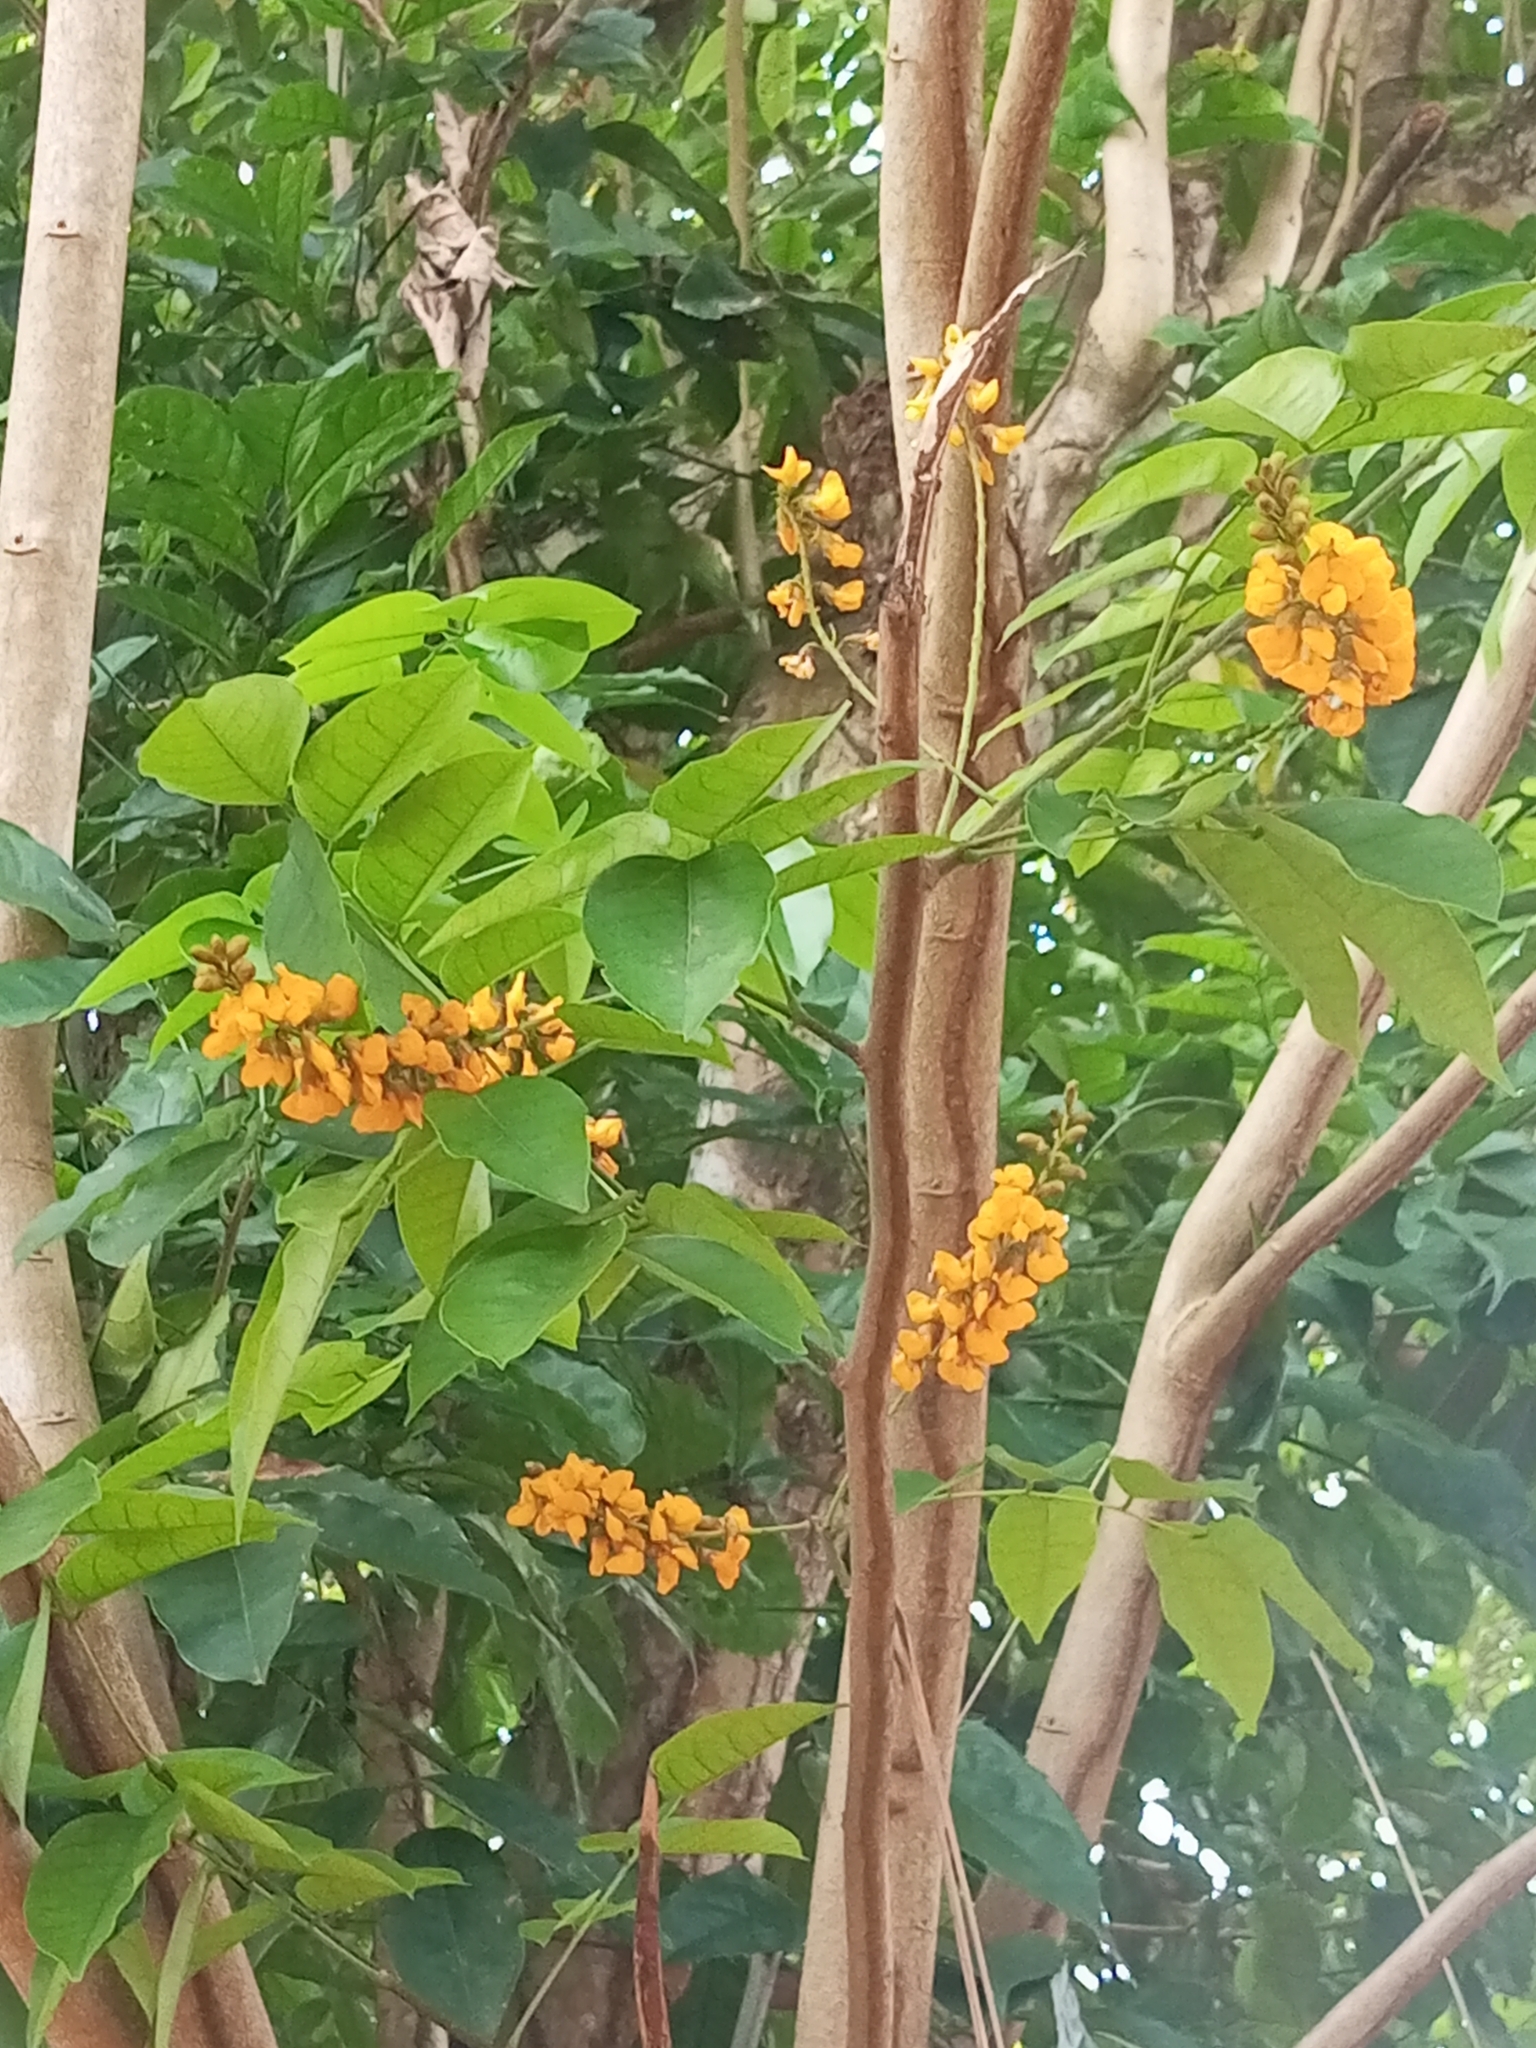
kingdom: Plantae
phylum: Tracheophyta
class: Magnoliopsida
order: Fabales
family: Fabaceae
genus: Pterocarpus
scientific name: Pterocarpus santalinoides
